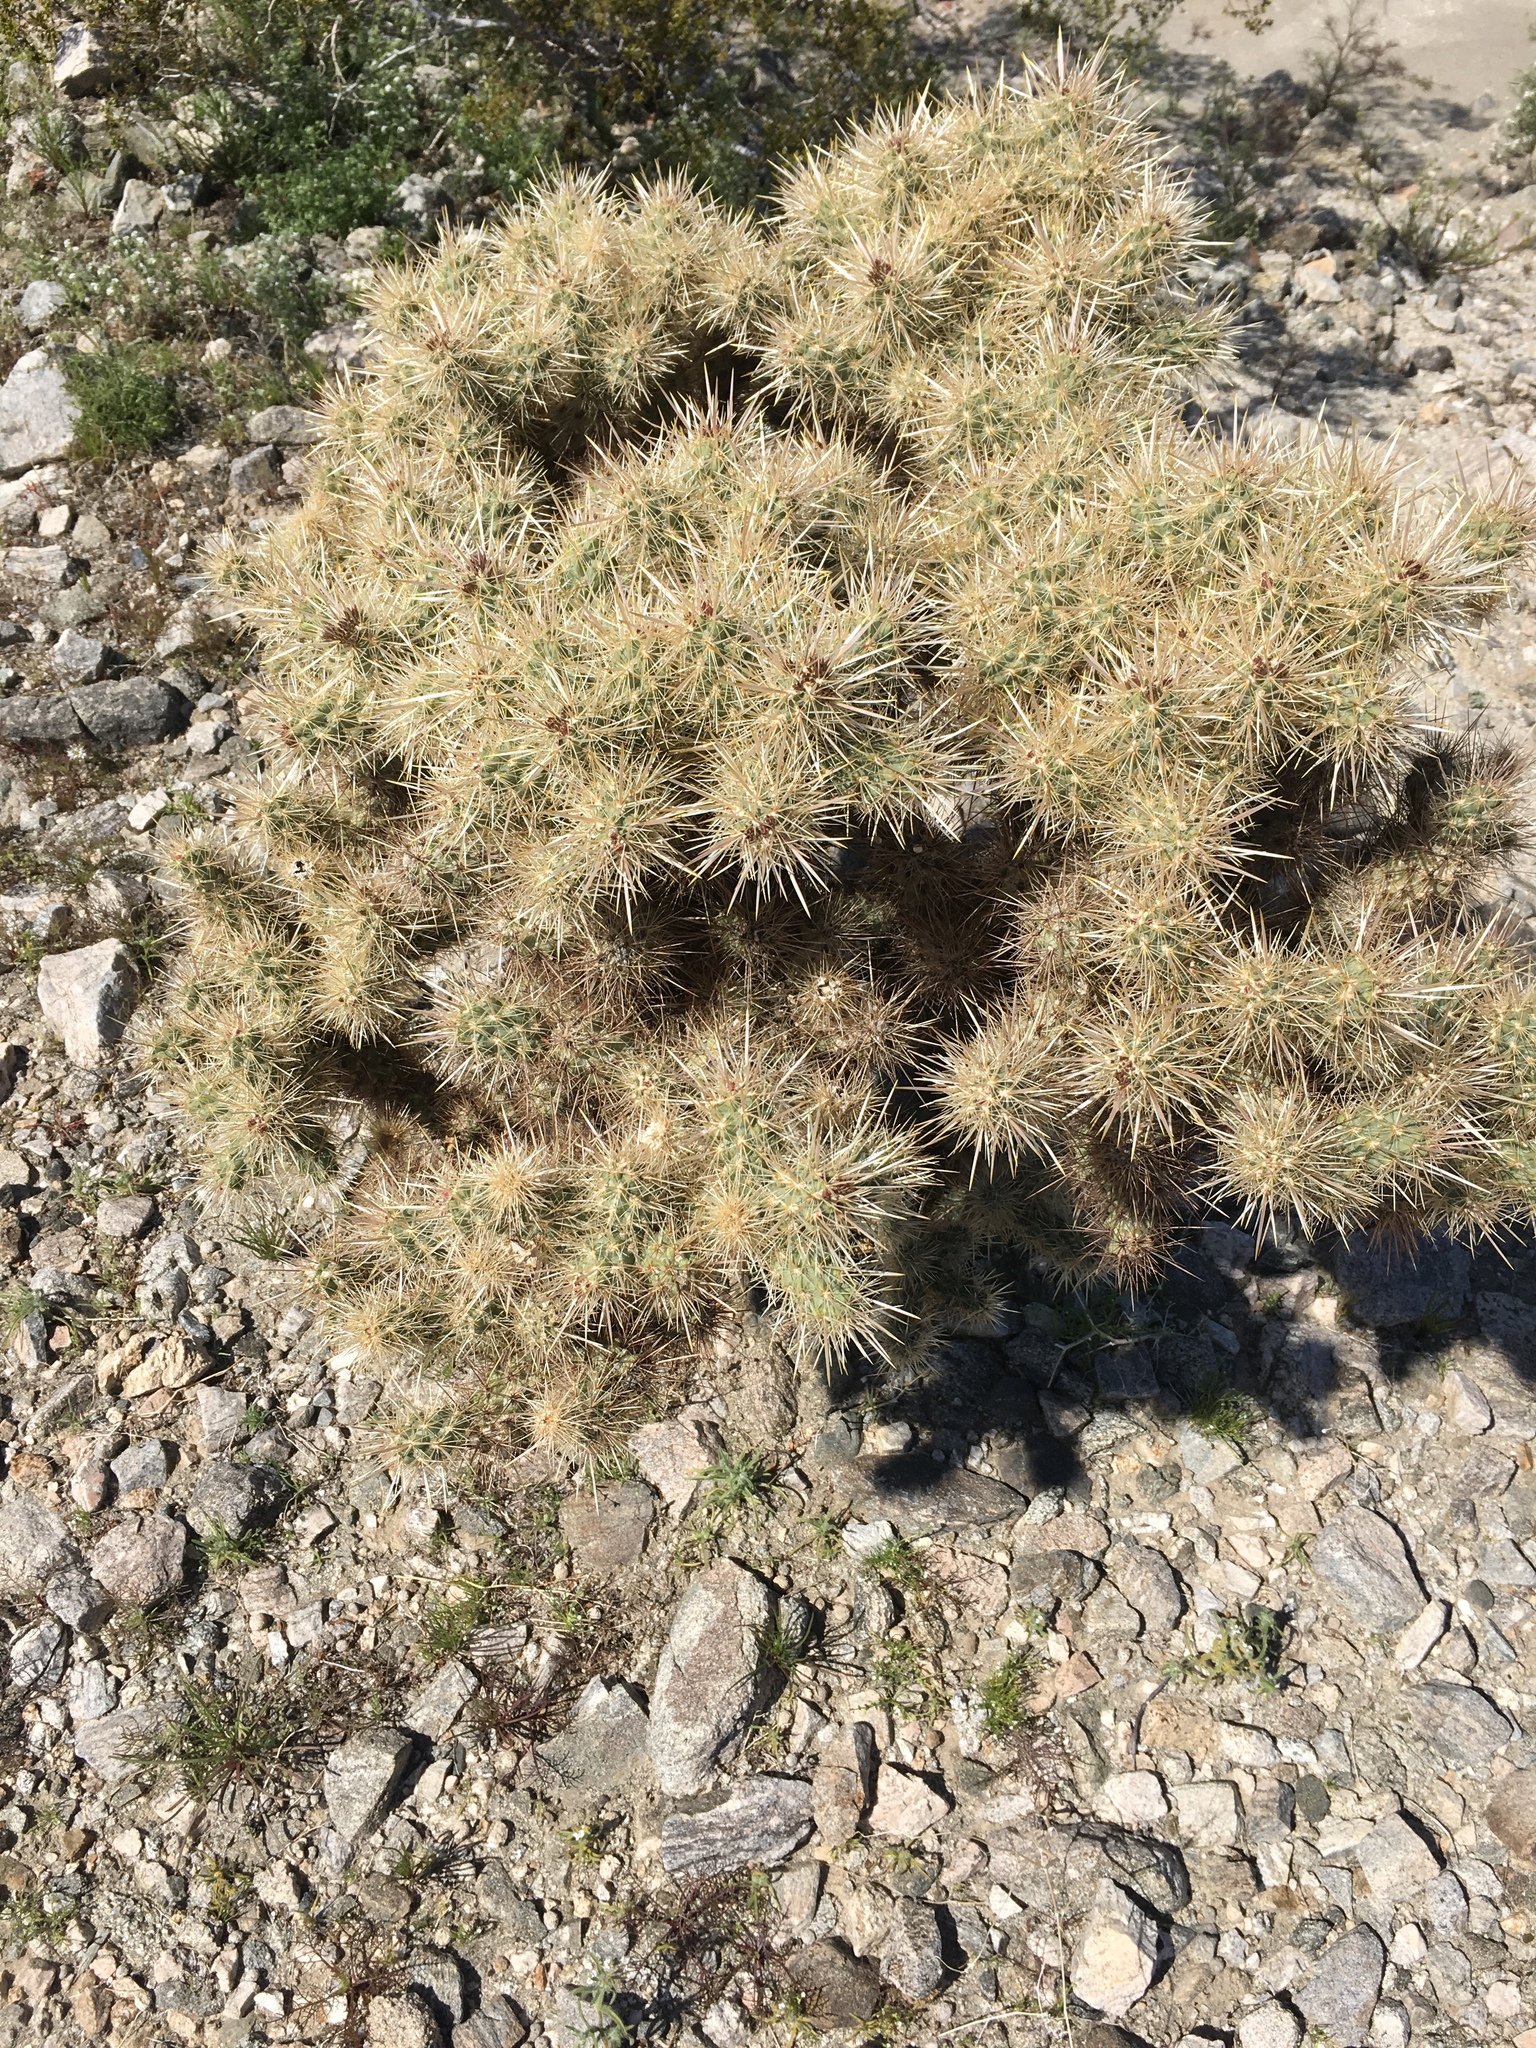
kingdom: Plantae
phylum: Tracheophyta
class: Magnoliopsida
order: Caryophyllales
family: Cactaceae
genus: Cylindropuntia
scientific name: Cylindropuntia echinocarpa
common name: Ground cholla
